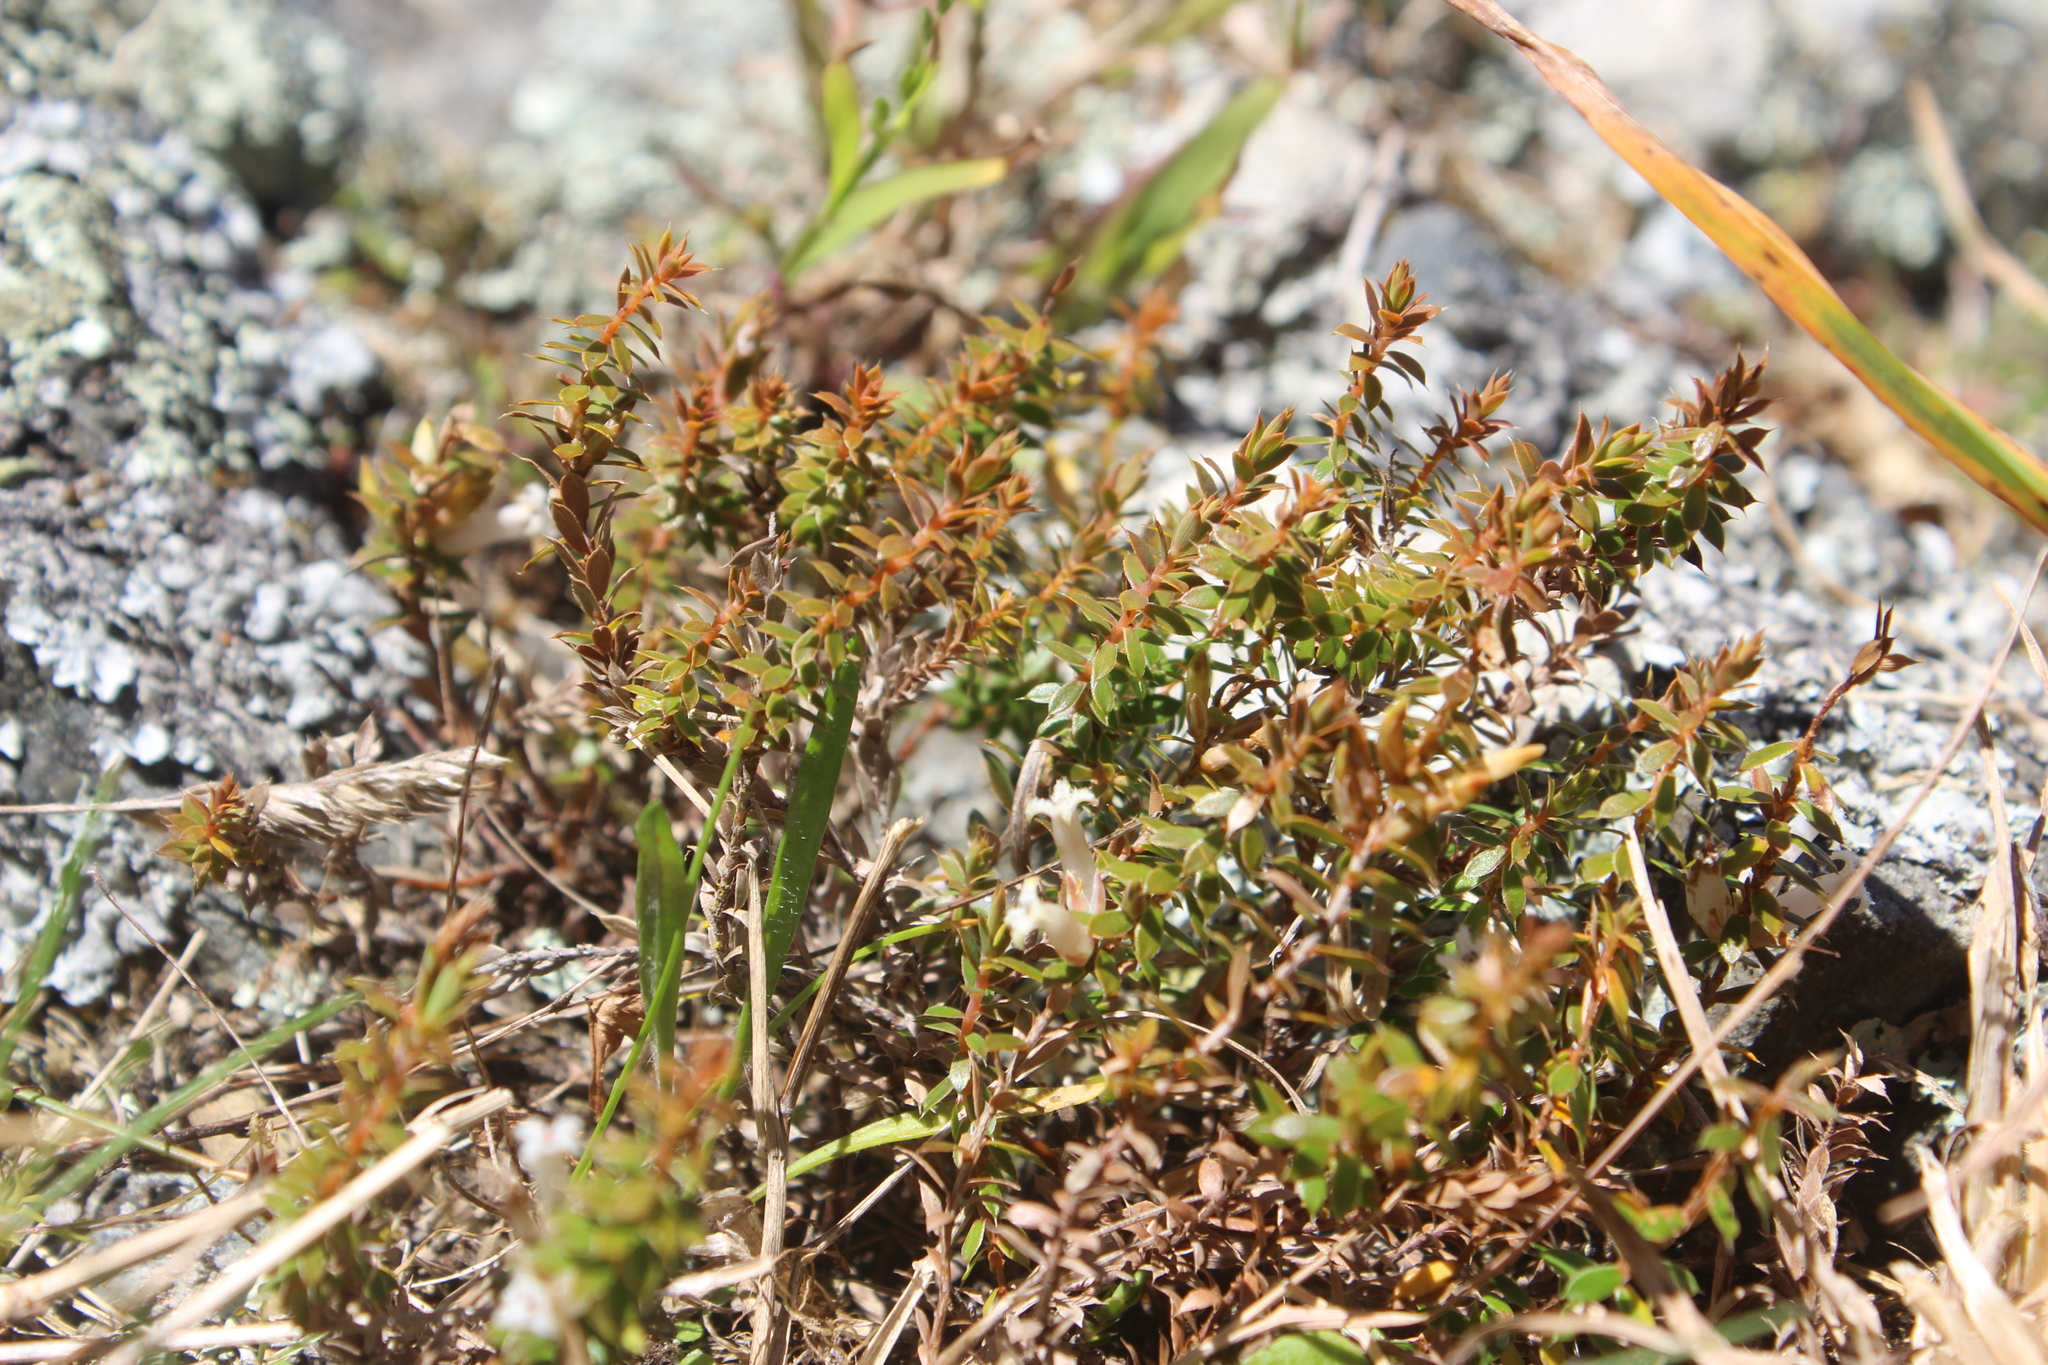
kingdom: Plantae
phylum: Tracheophyta
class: Magnoliopsida
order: Ericales
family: Ericaceae
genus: Styphelia
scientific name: Styphelia nesophila
